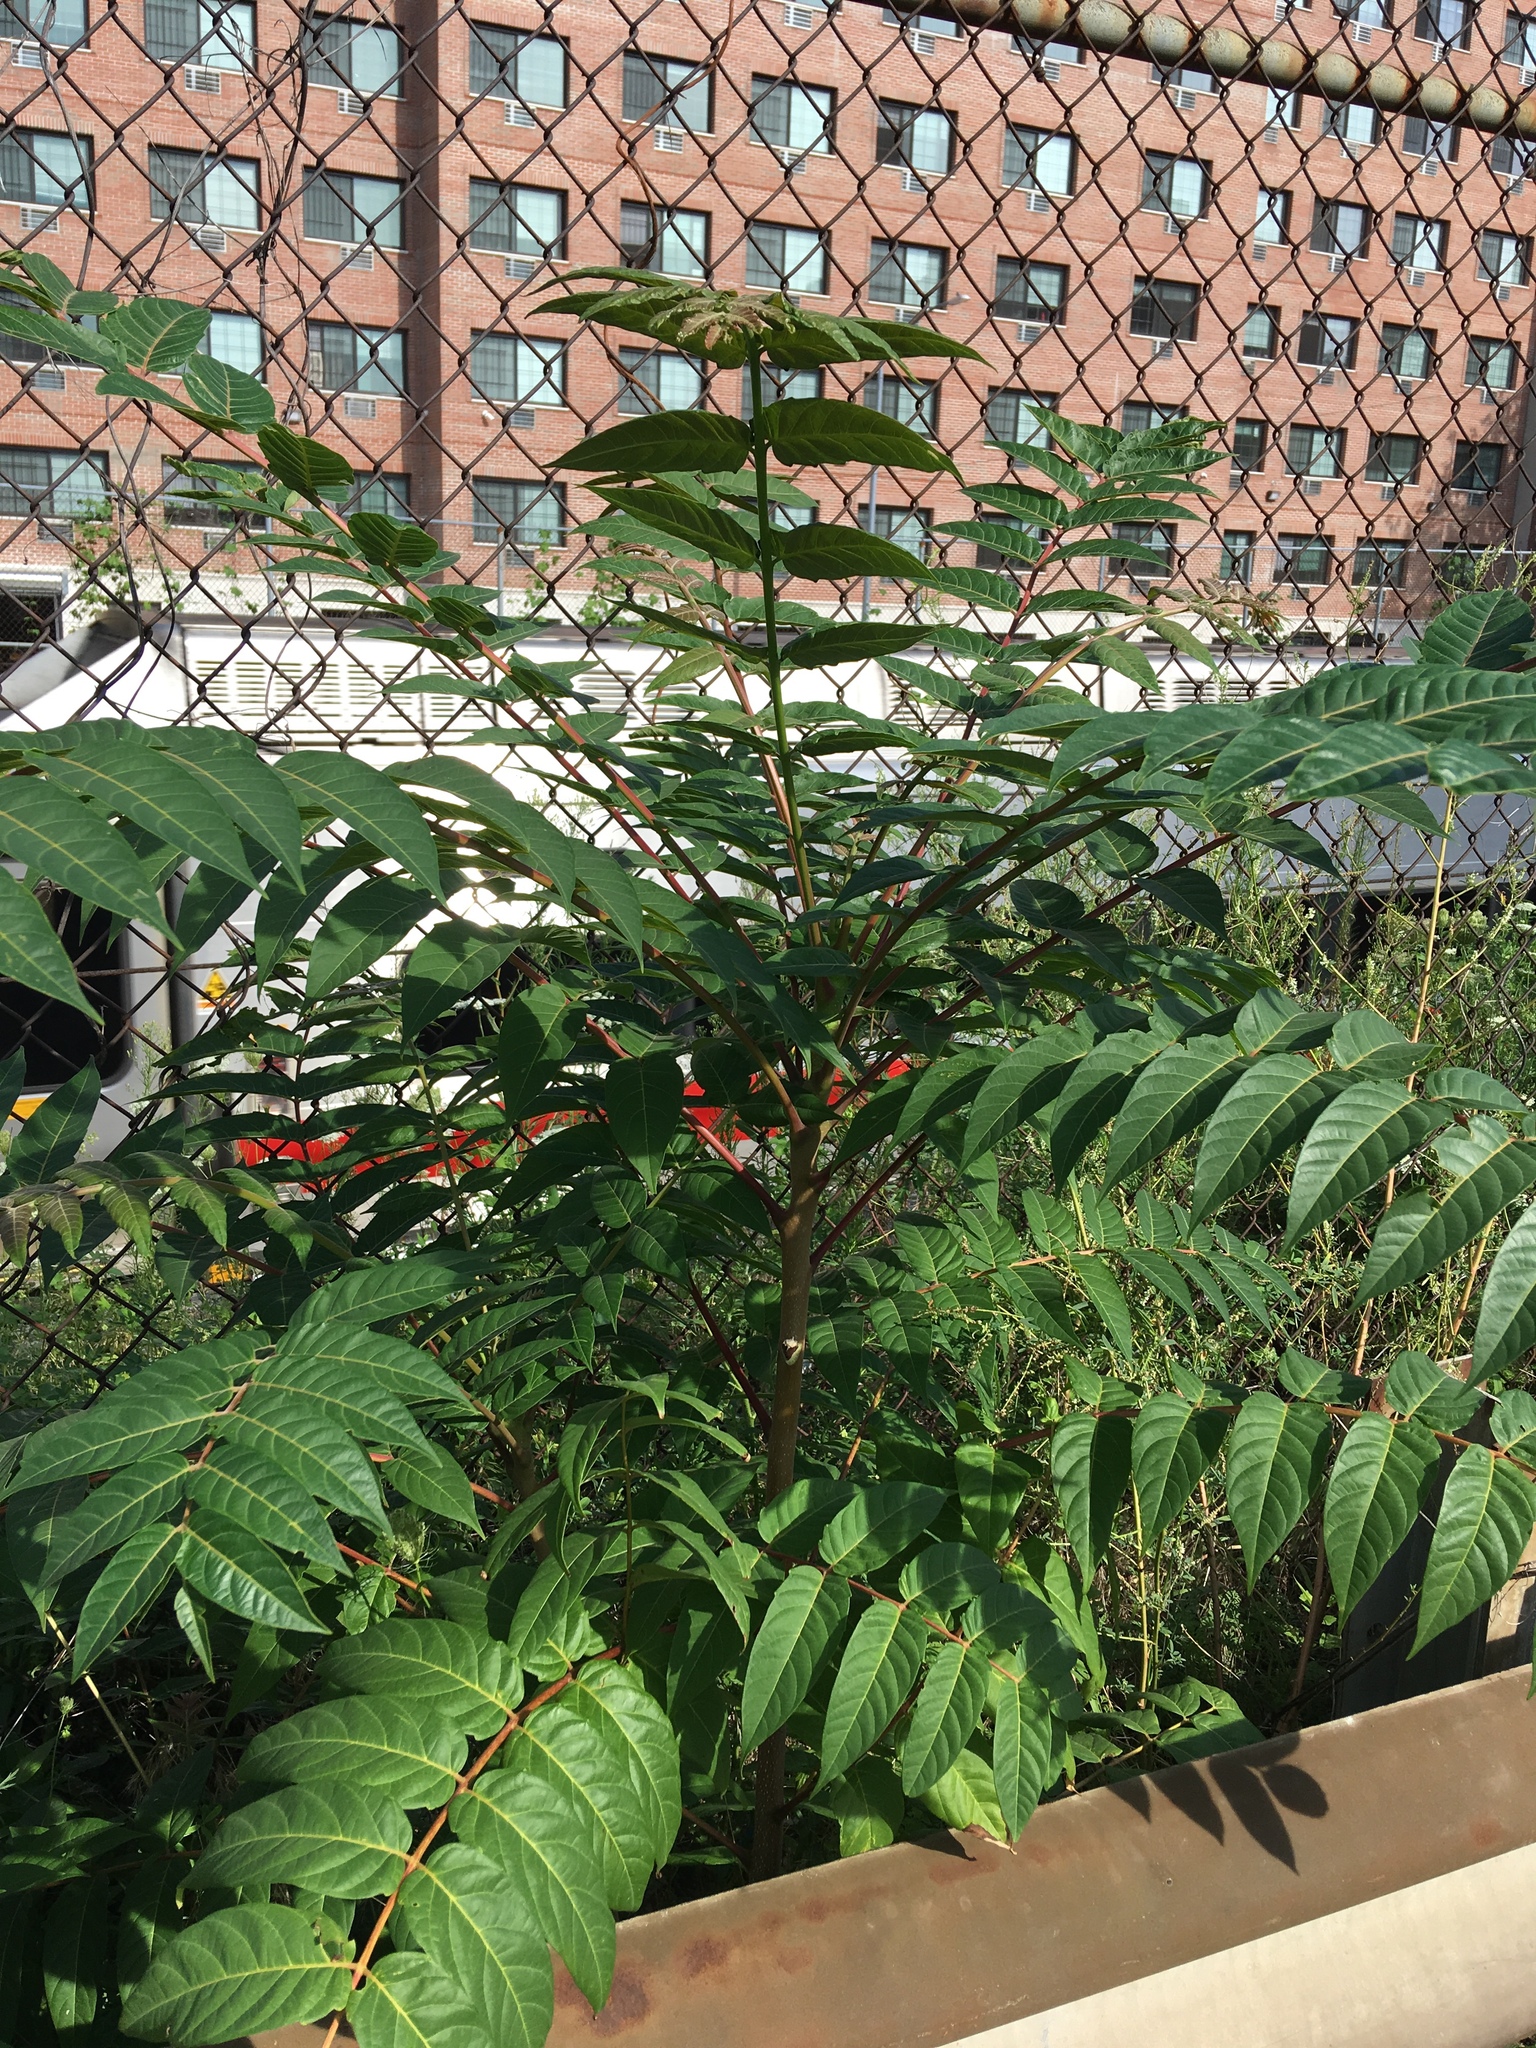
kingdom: Plantae
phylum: Tracheophyta
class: Magnoliopsida
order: Sapindales
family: Simaroubaceae
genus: Ailanthus
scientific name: Ailanthus altissima
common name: Tree-of-heaven
